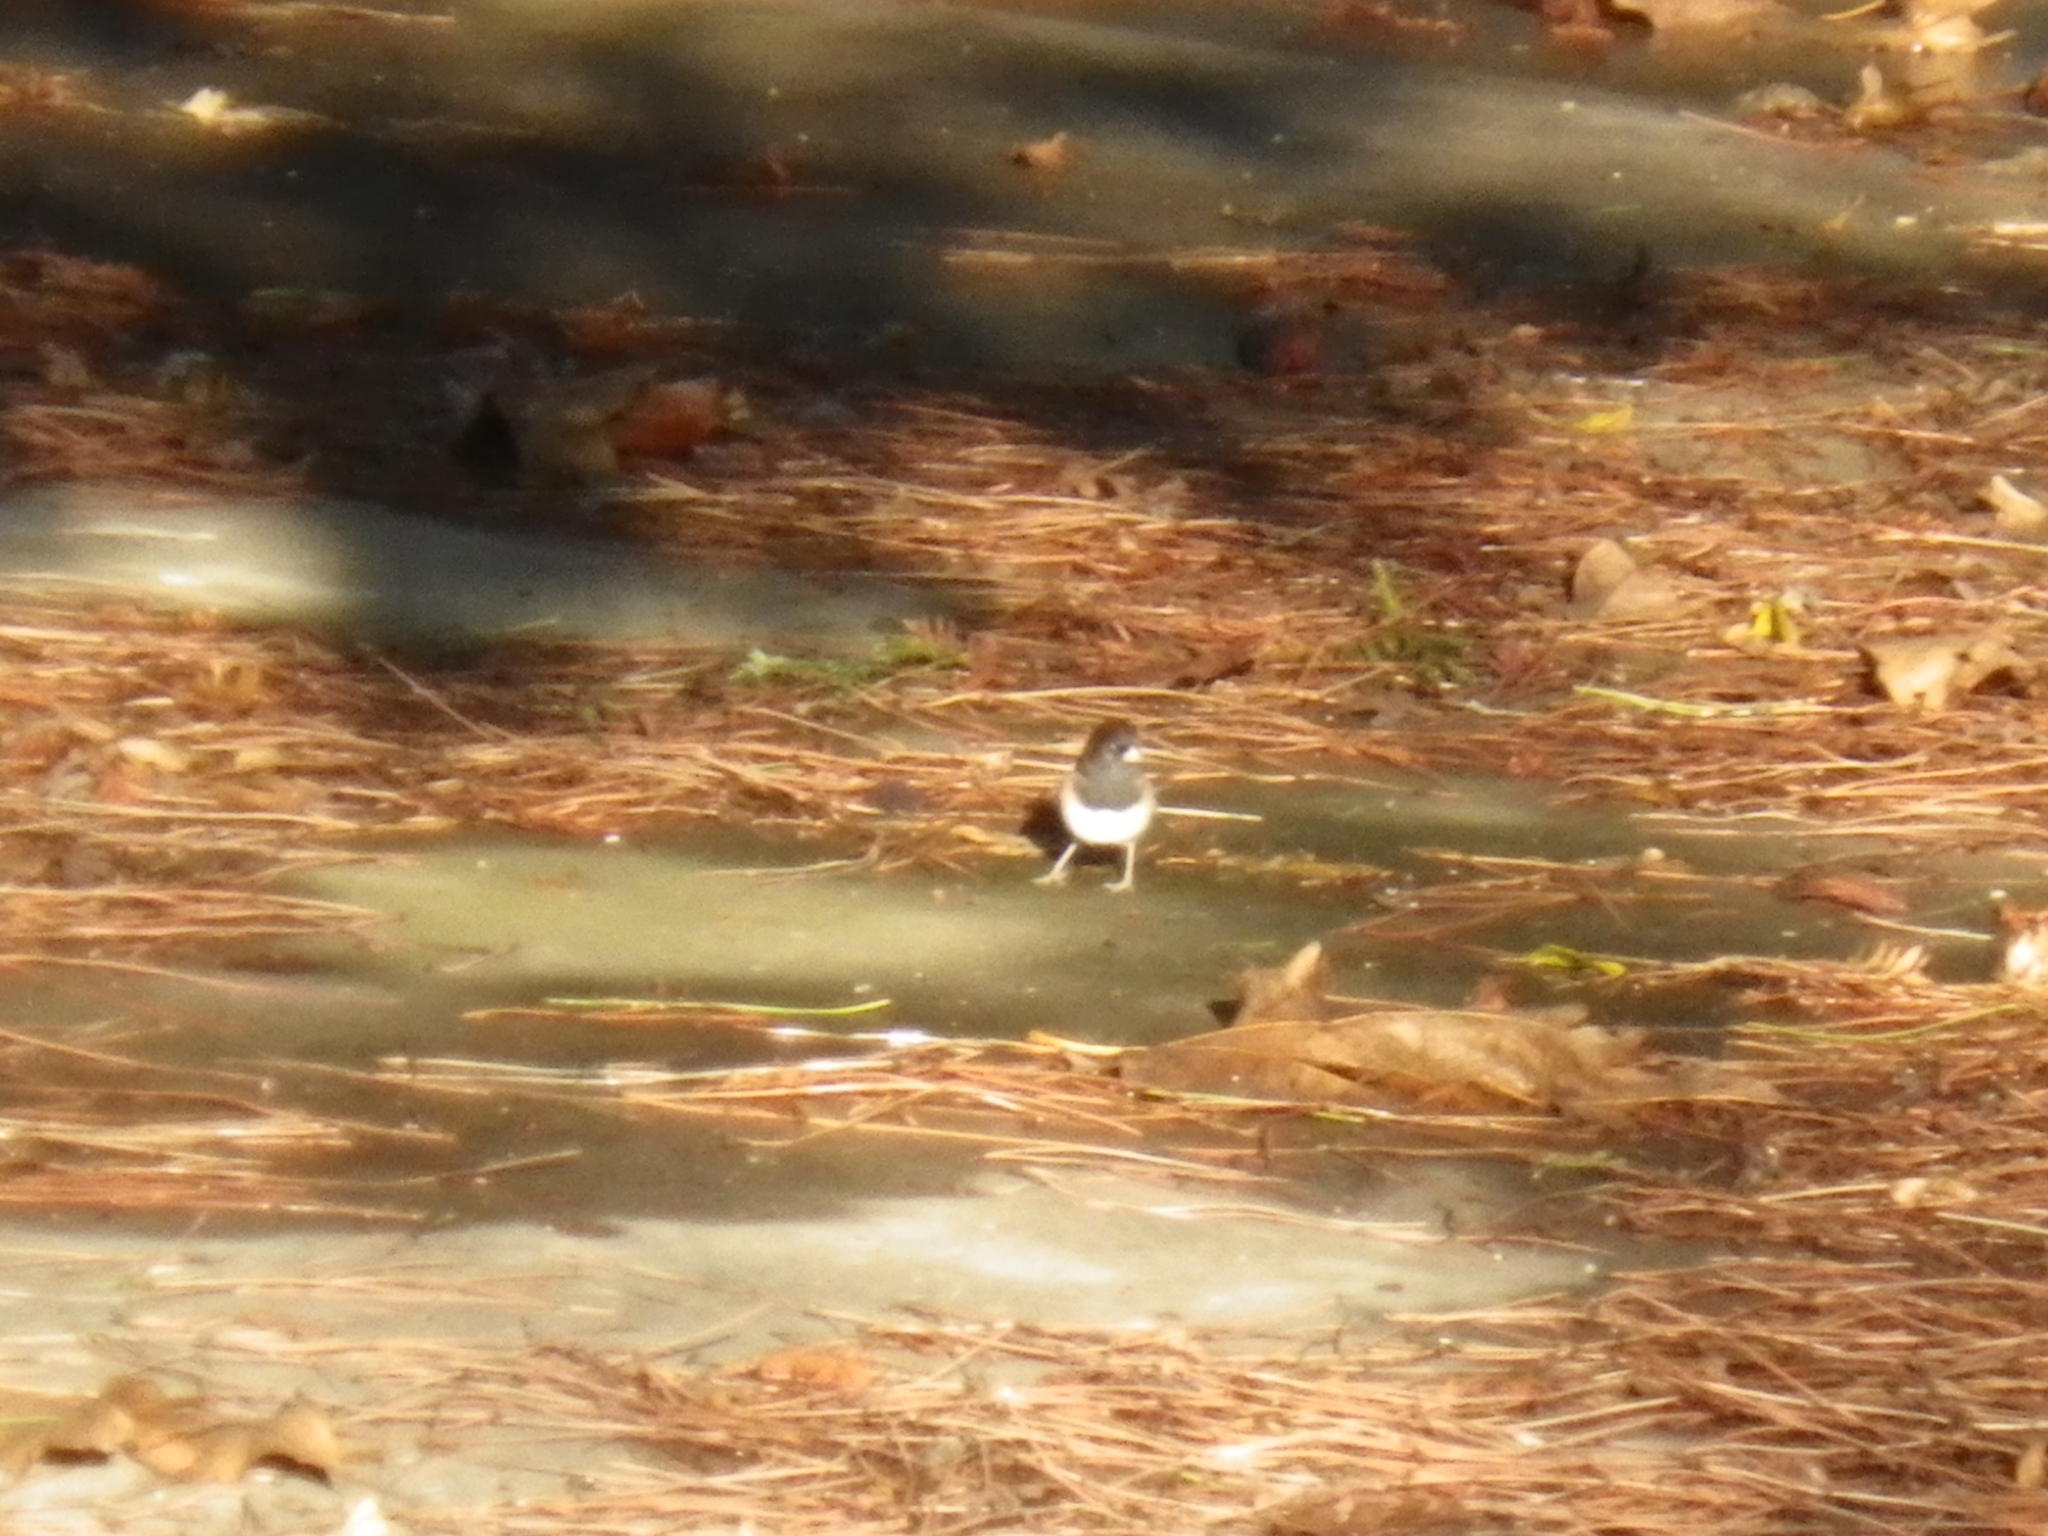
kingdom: Animalia
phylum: Chordata
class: Aves
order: Passeriformes
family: Passerellidae
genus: Junco
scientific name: Junco hyemalis
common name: Dark-eyed junco
